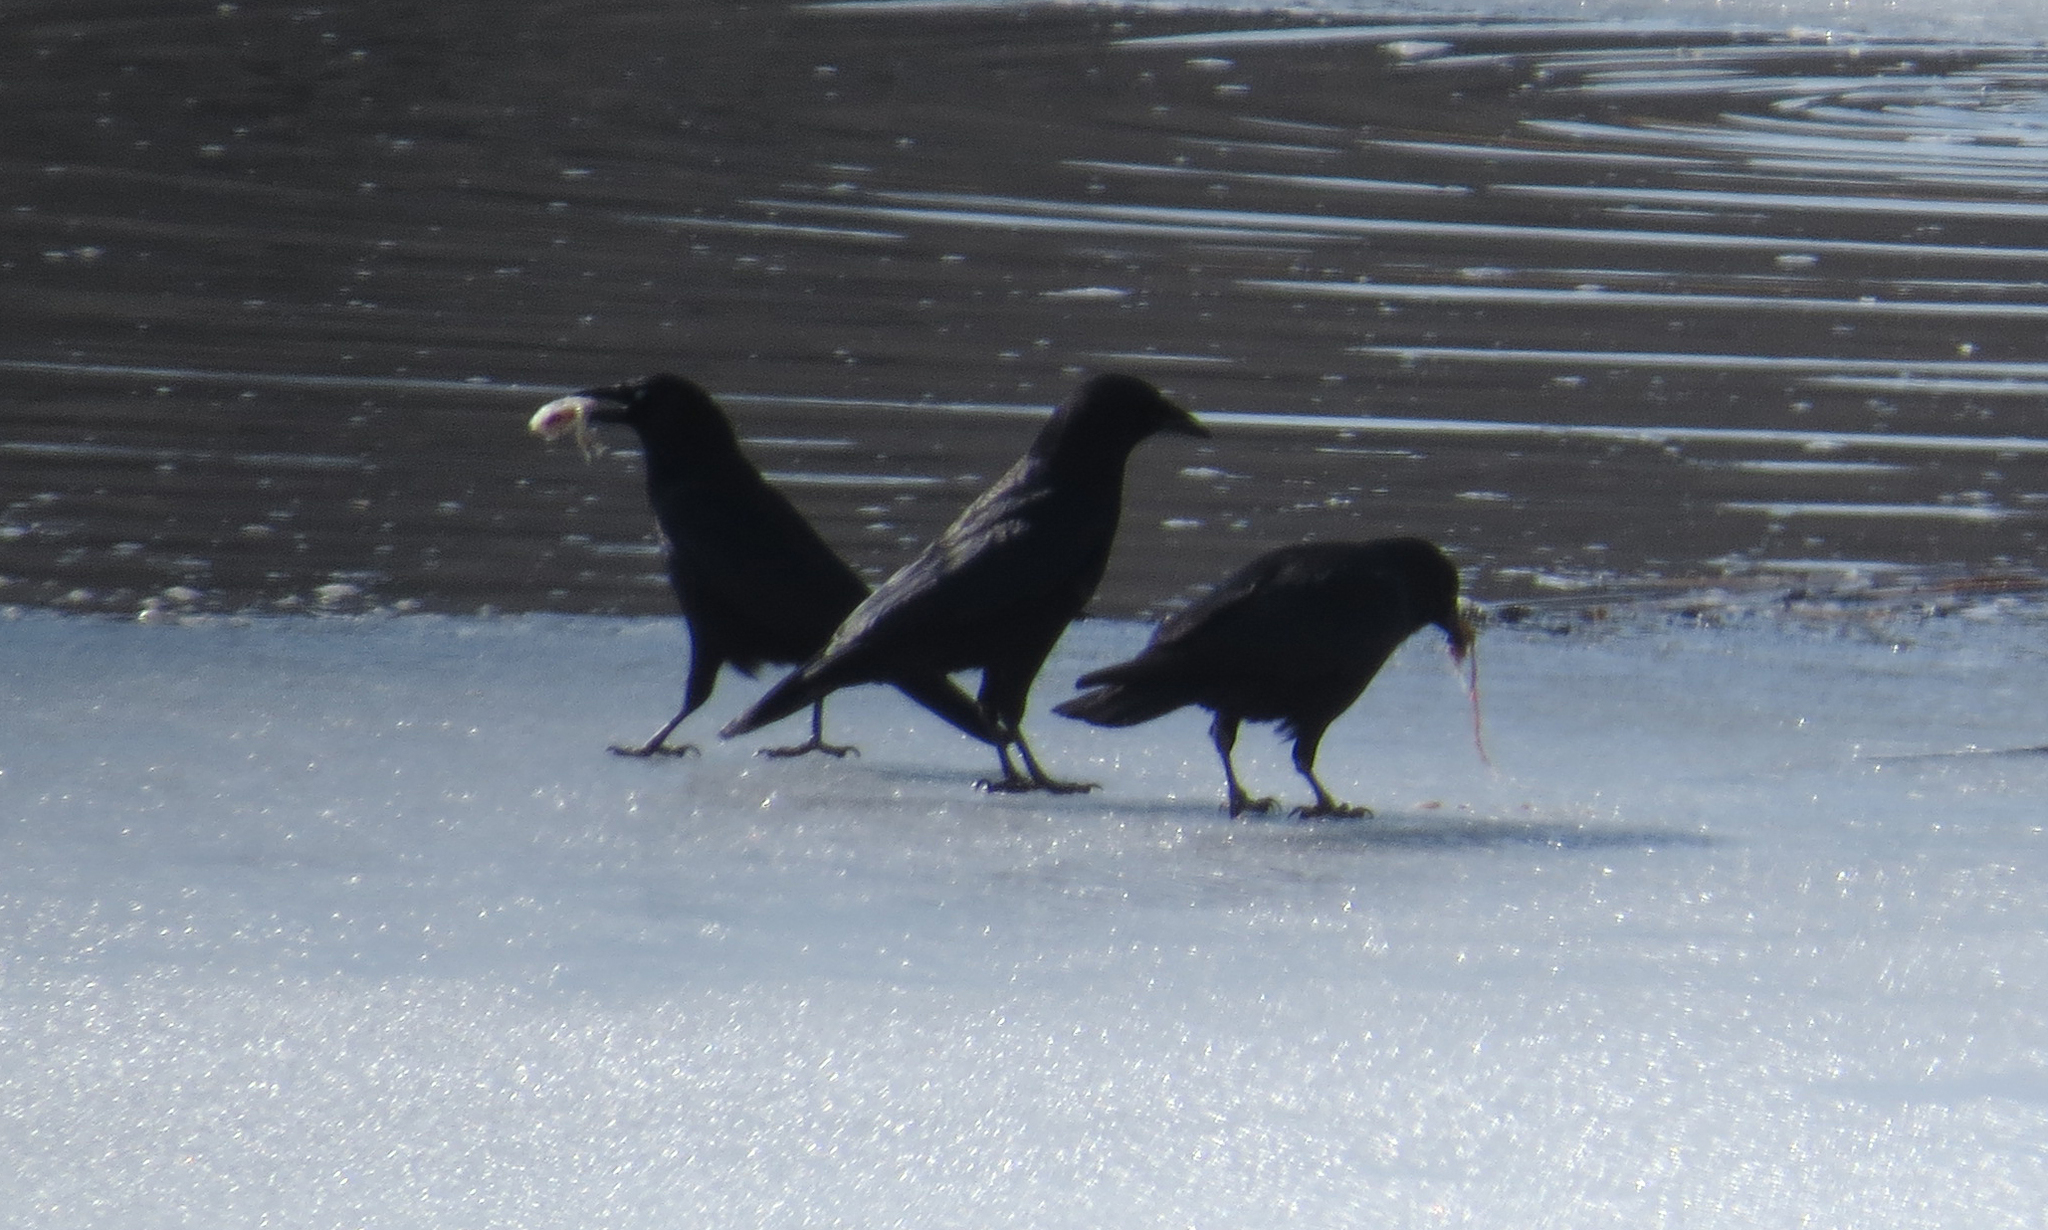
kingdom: Animalia
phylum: Chordata
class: Aves
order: Passeriformes
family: Corvidae
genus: Corvus
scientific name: Corvus brachyrhynchos
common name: American crow
